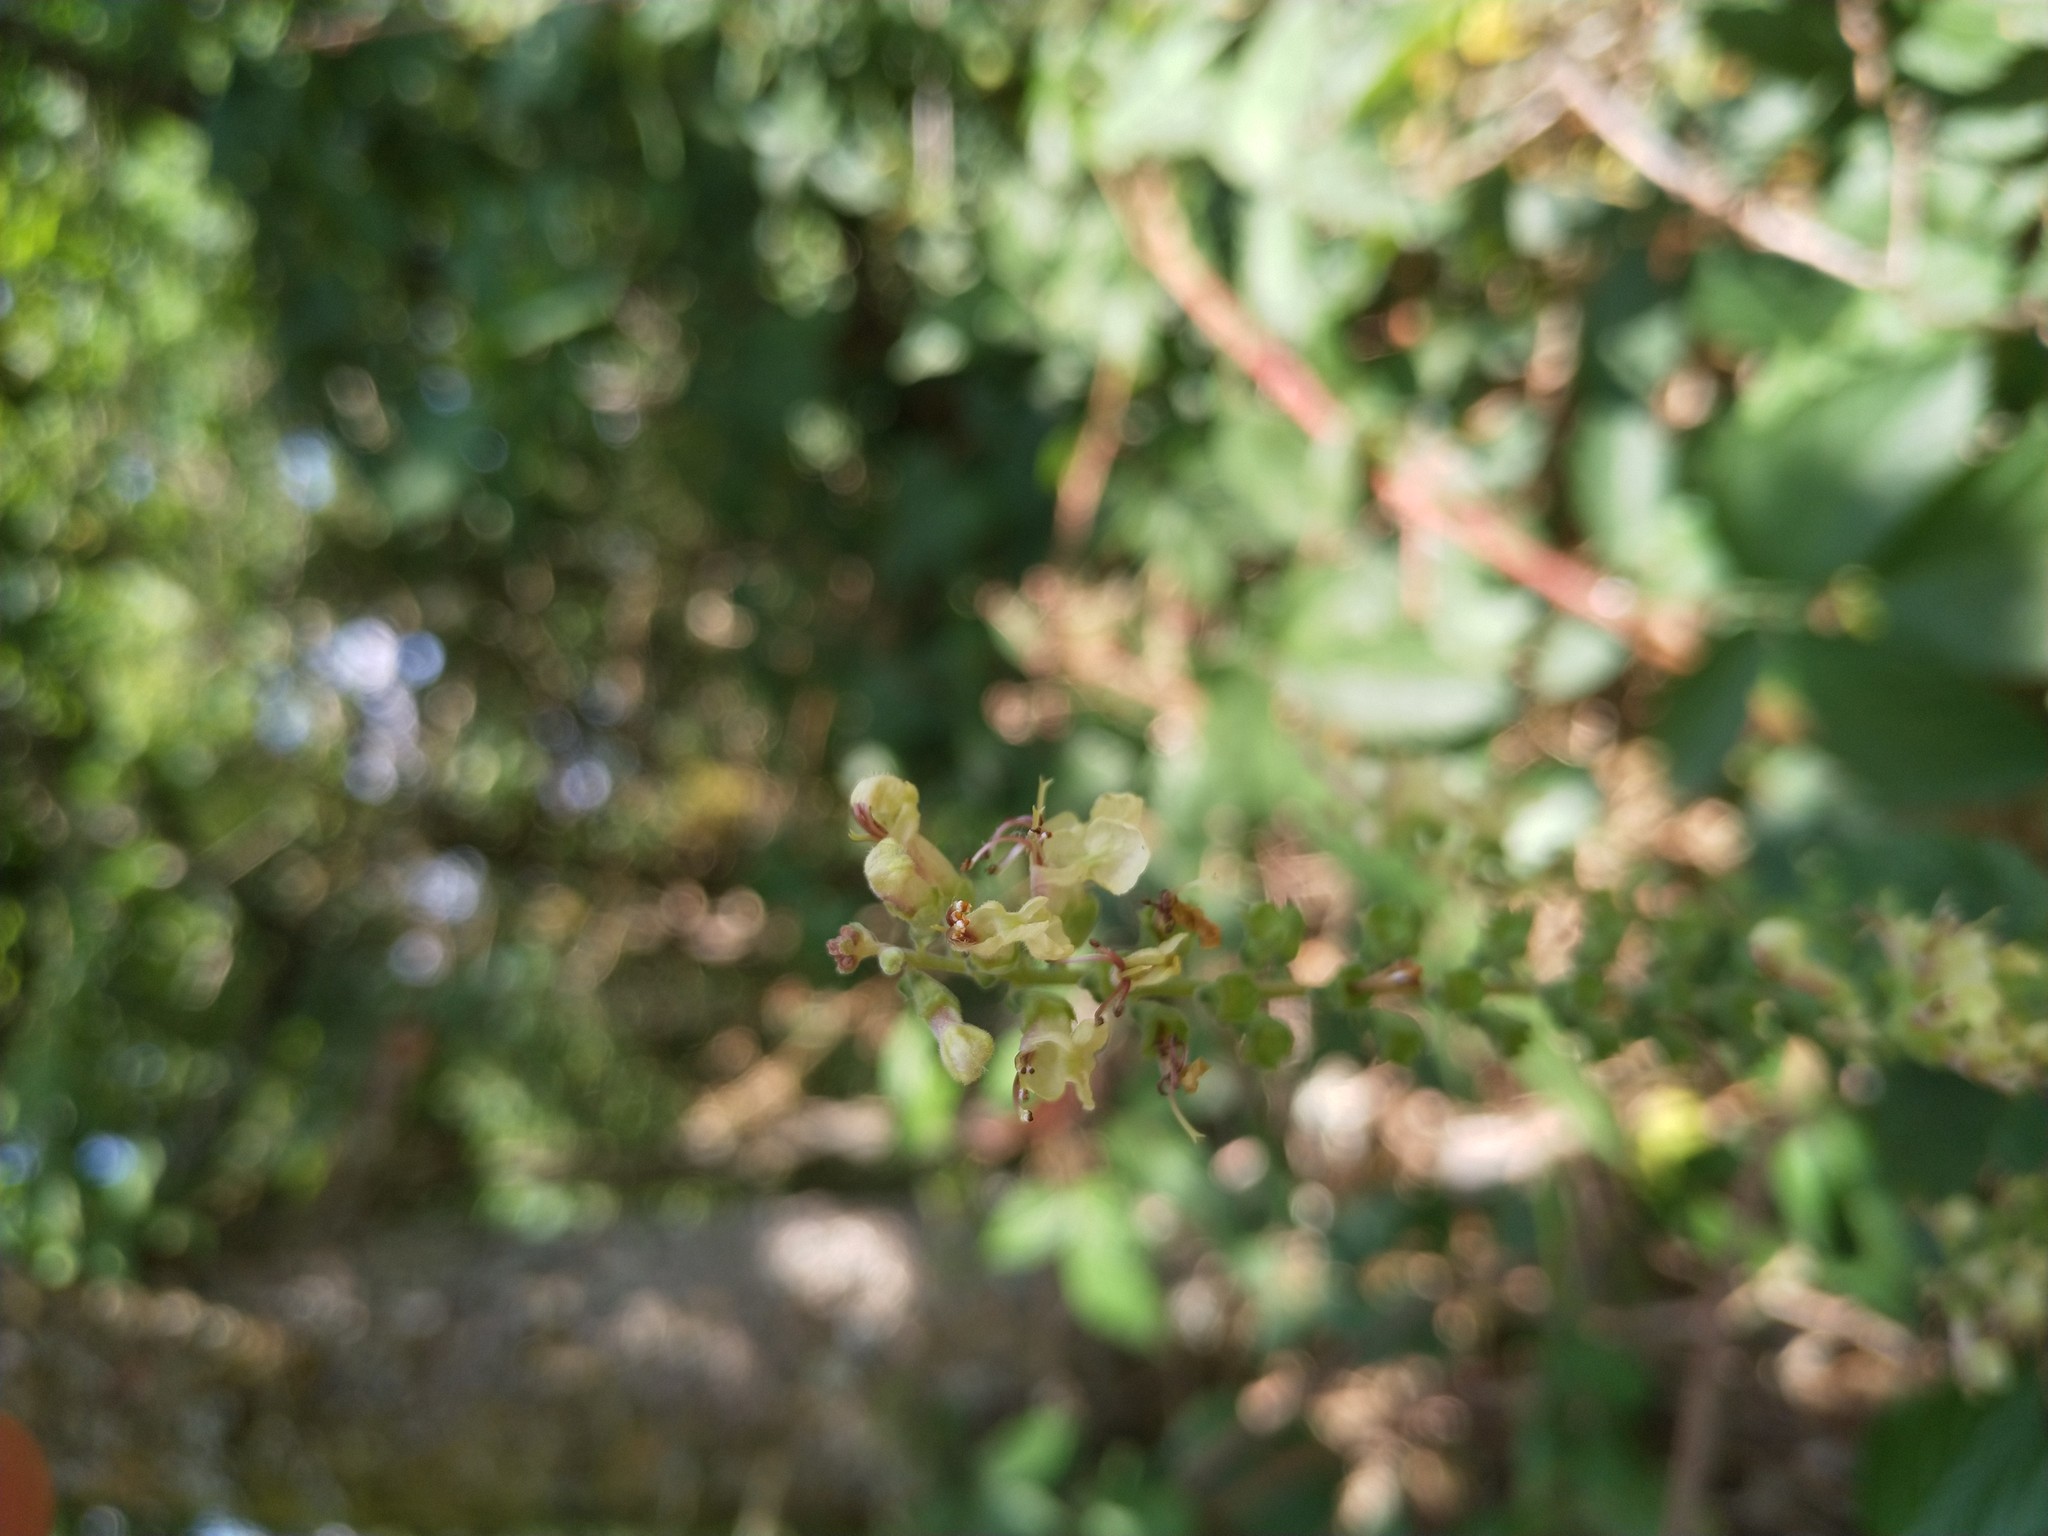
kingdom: Plantae
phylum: Tracheophyta
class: Magnoliopsida
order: Lamiales
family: Lamiaceae
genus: Teucrium
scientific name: Teucrium scorodonia
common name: Woodland germander
